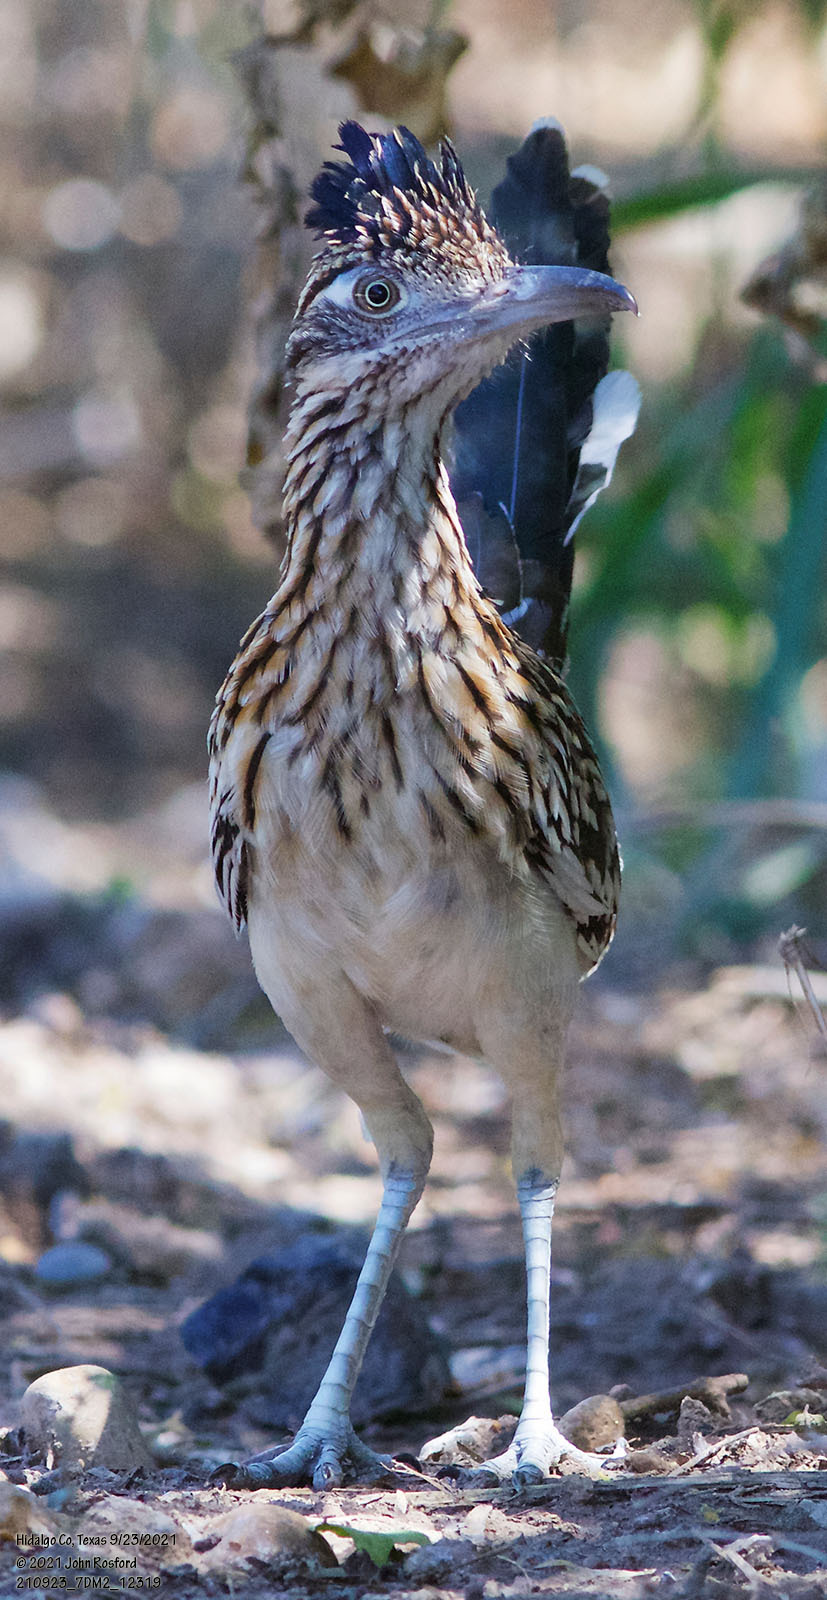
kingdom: Animalia
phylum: Chordata
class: Aves
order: Cuculiformes
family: Cuculidae
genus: Geococcyx
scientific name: Geococcyx californianus
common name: Greater roadrunner
